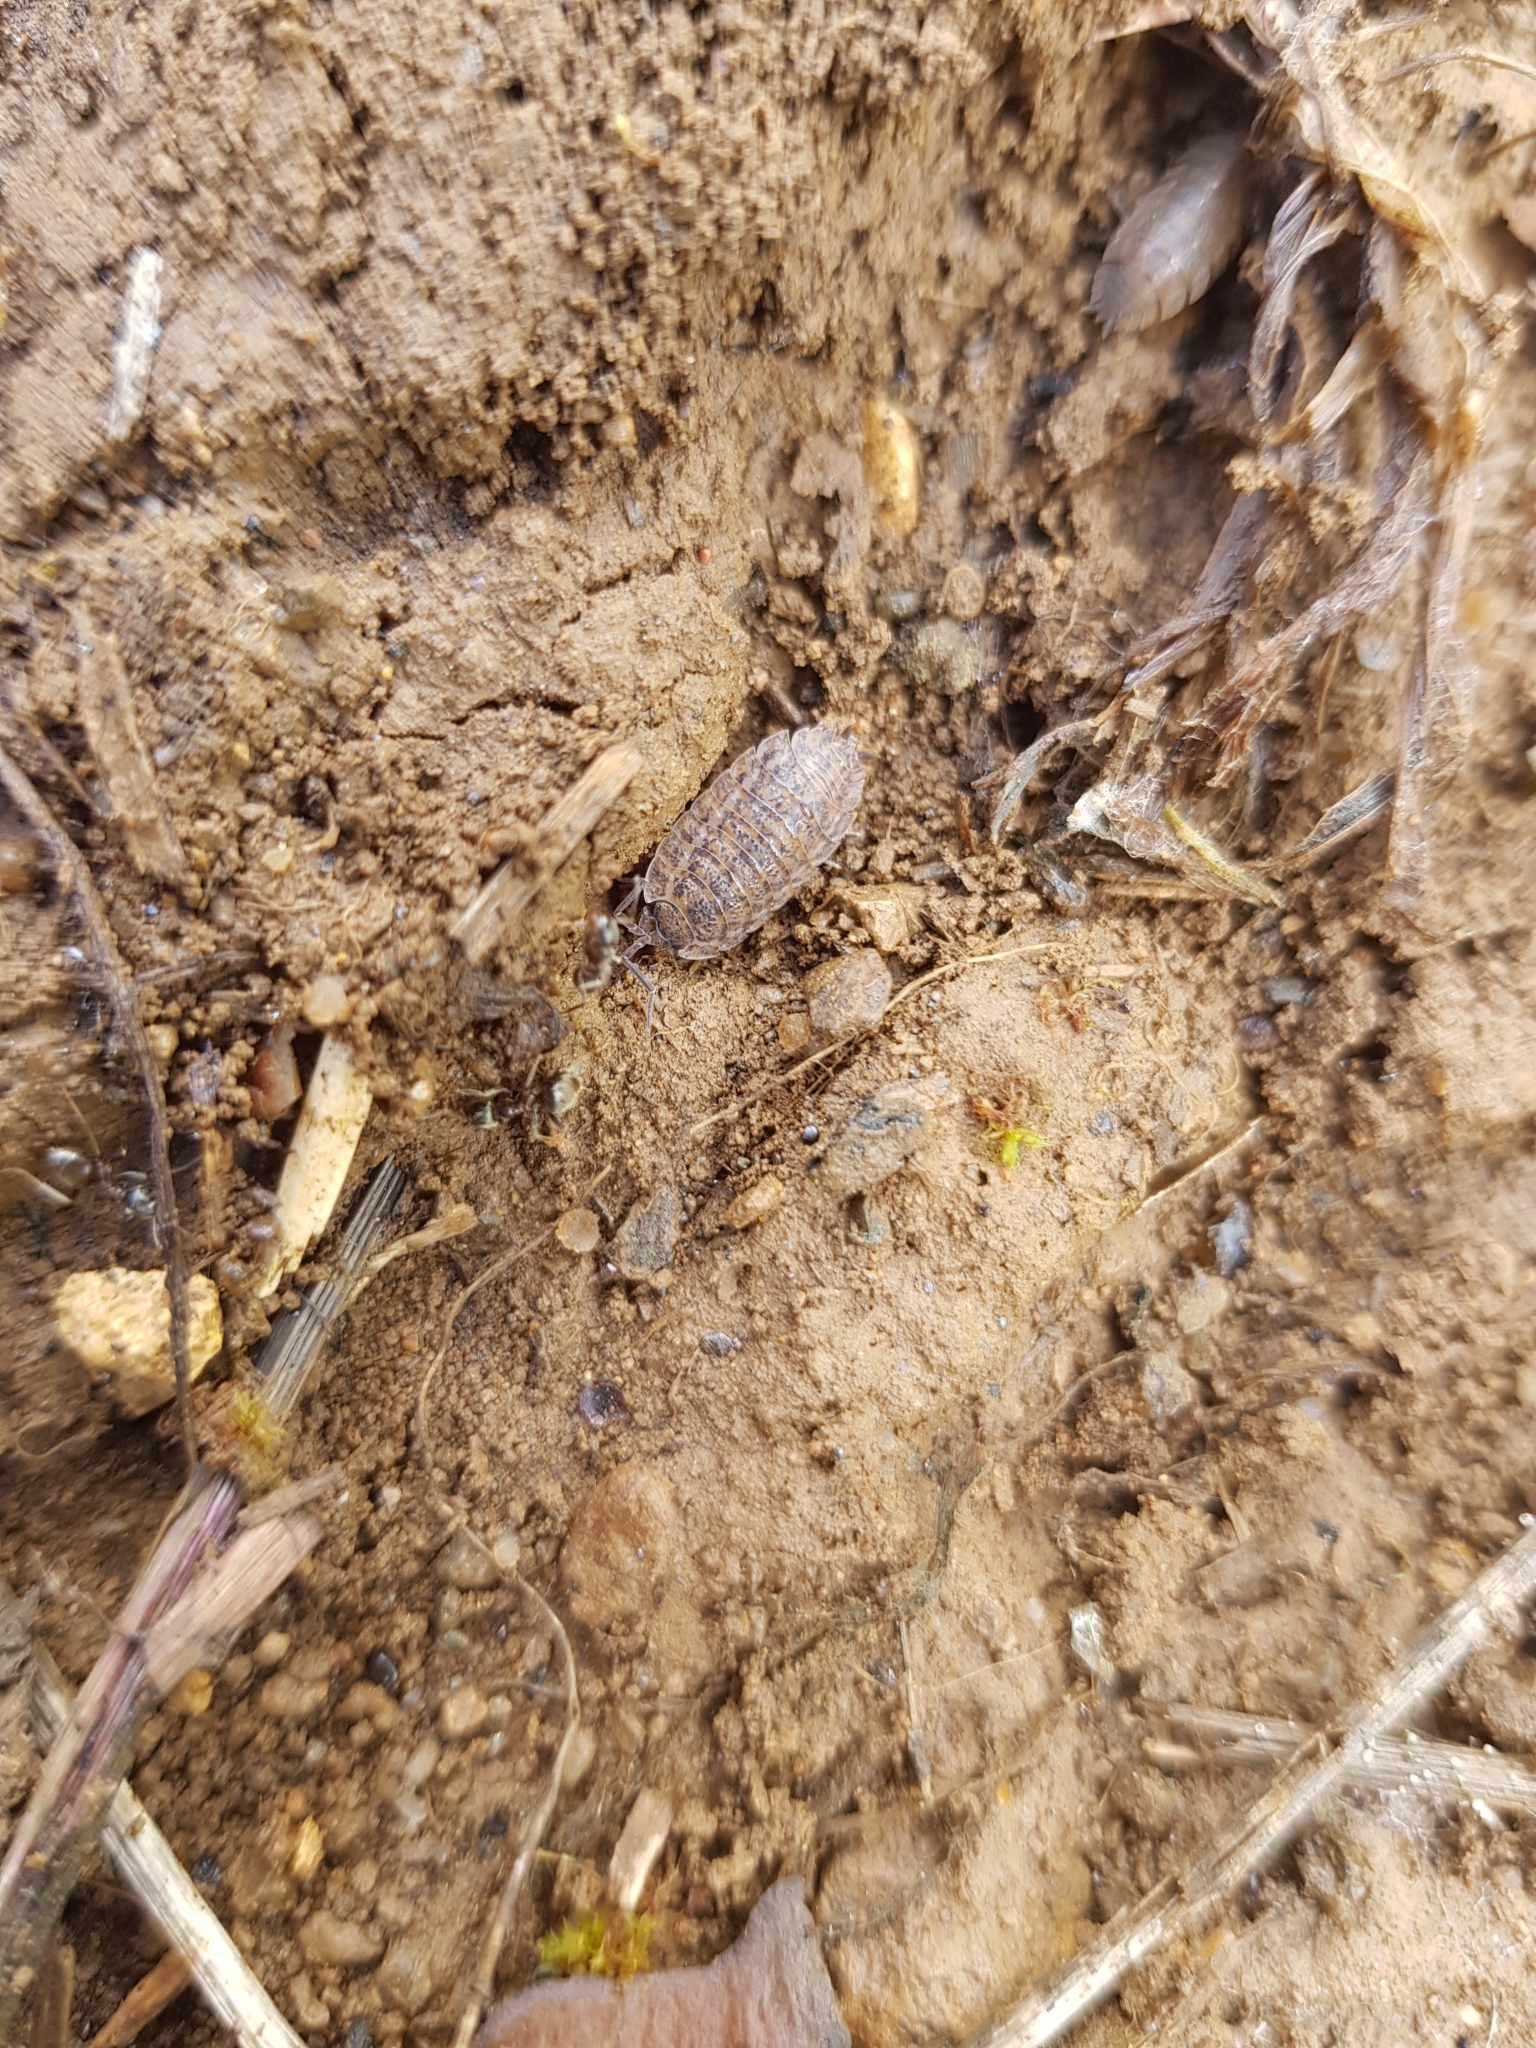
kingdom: Animalia
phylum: Arthropoda
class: Malacostraca
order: Isopoda
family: Trachelipodidae
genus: Trachelipus
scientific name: Trachelipus rathkii
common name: Isopod
